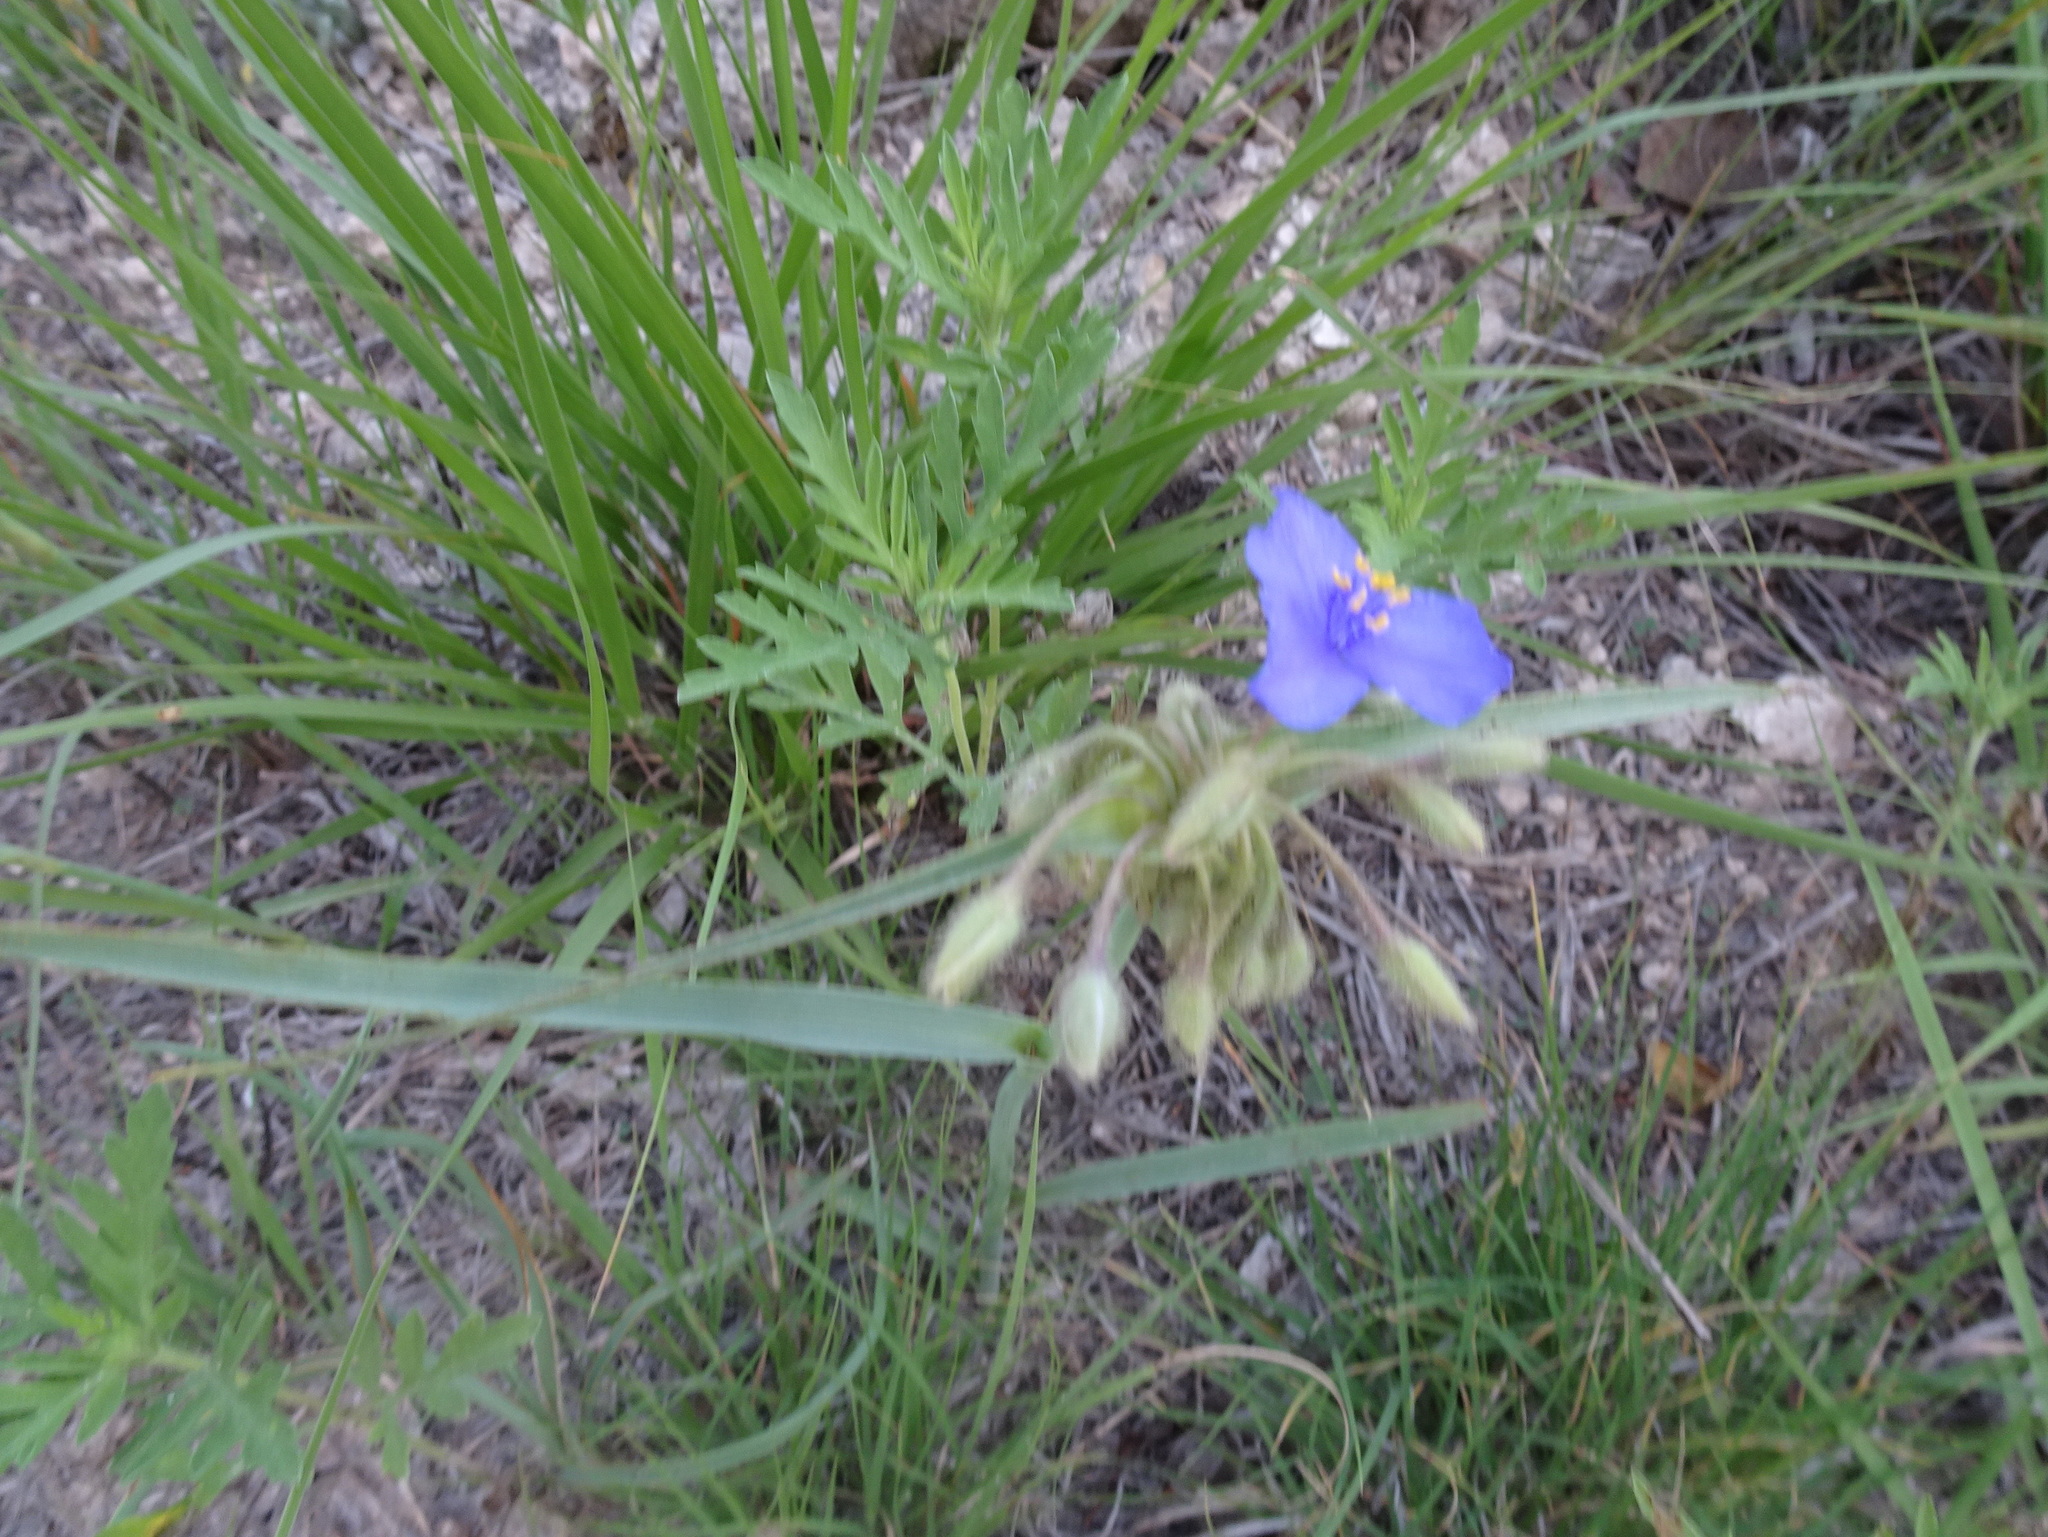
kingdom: Plantae
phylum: Tracheophyta
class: Liliopsida
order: Commelinales
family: Commelinaceae
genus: Tradescantia
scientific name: Tradescantia occidentalis
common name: Prairie spiderwort
